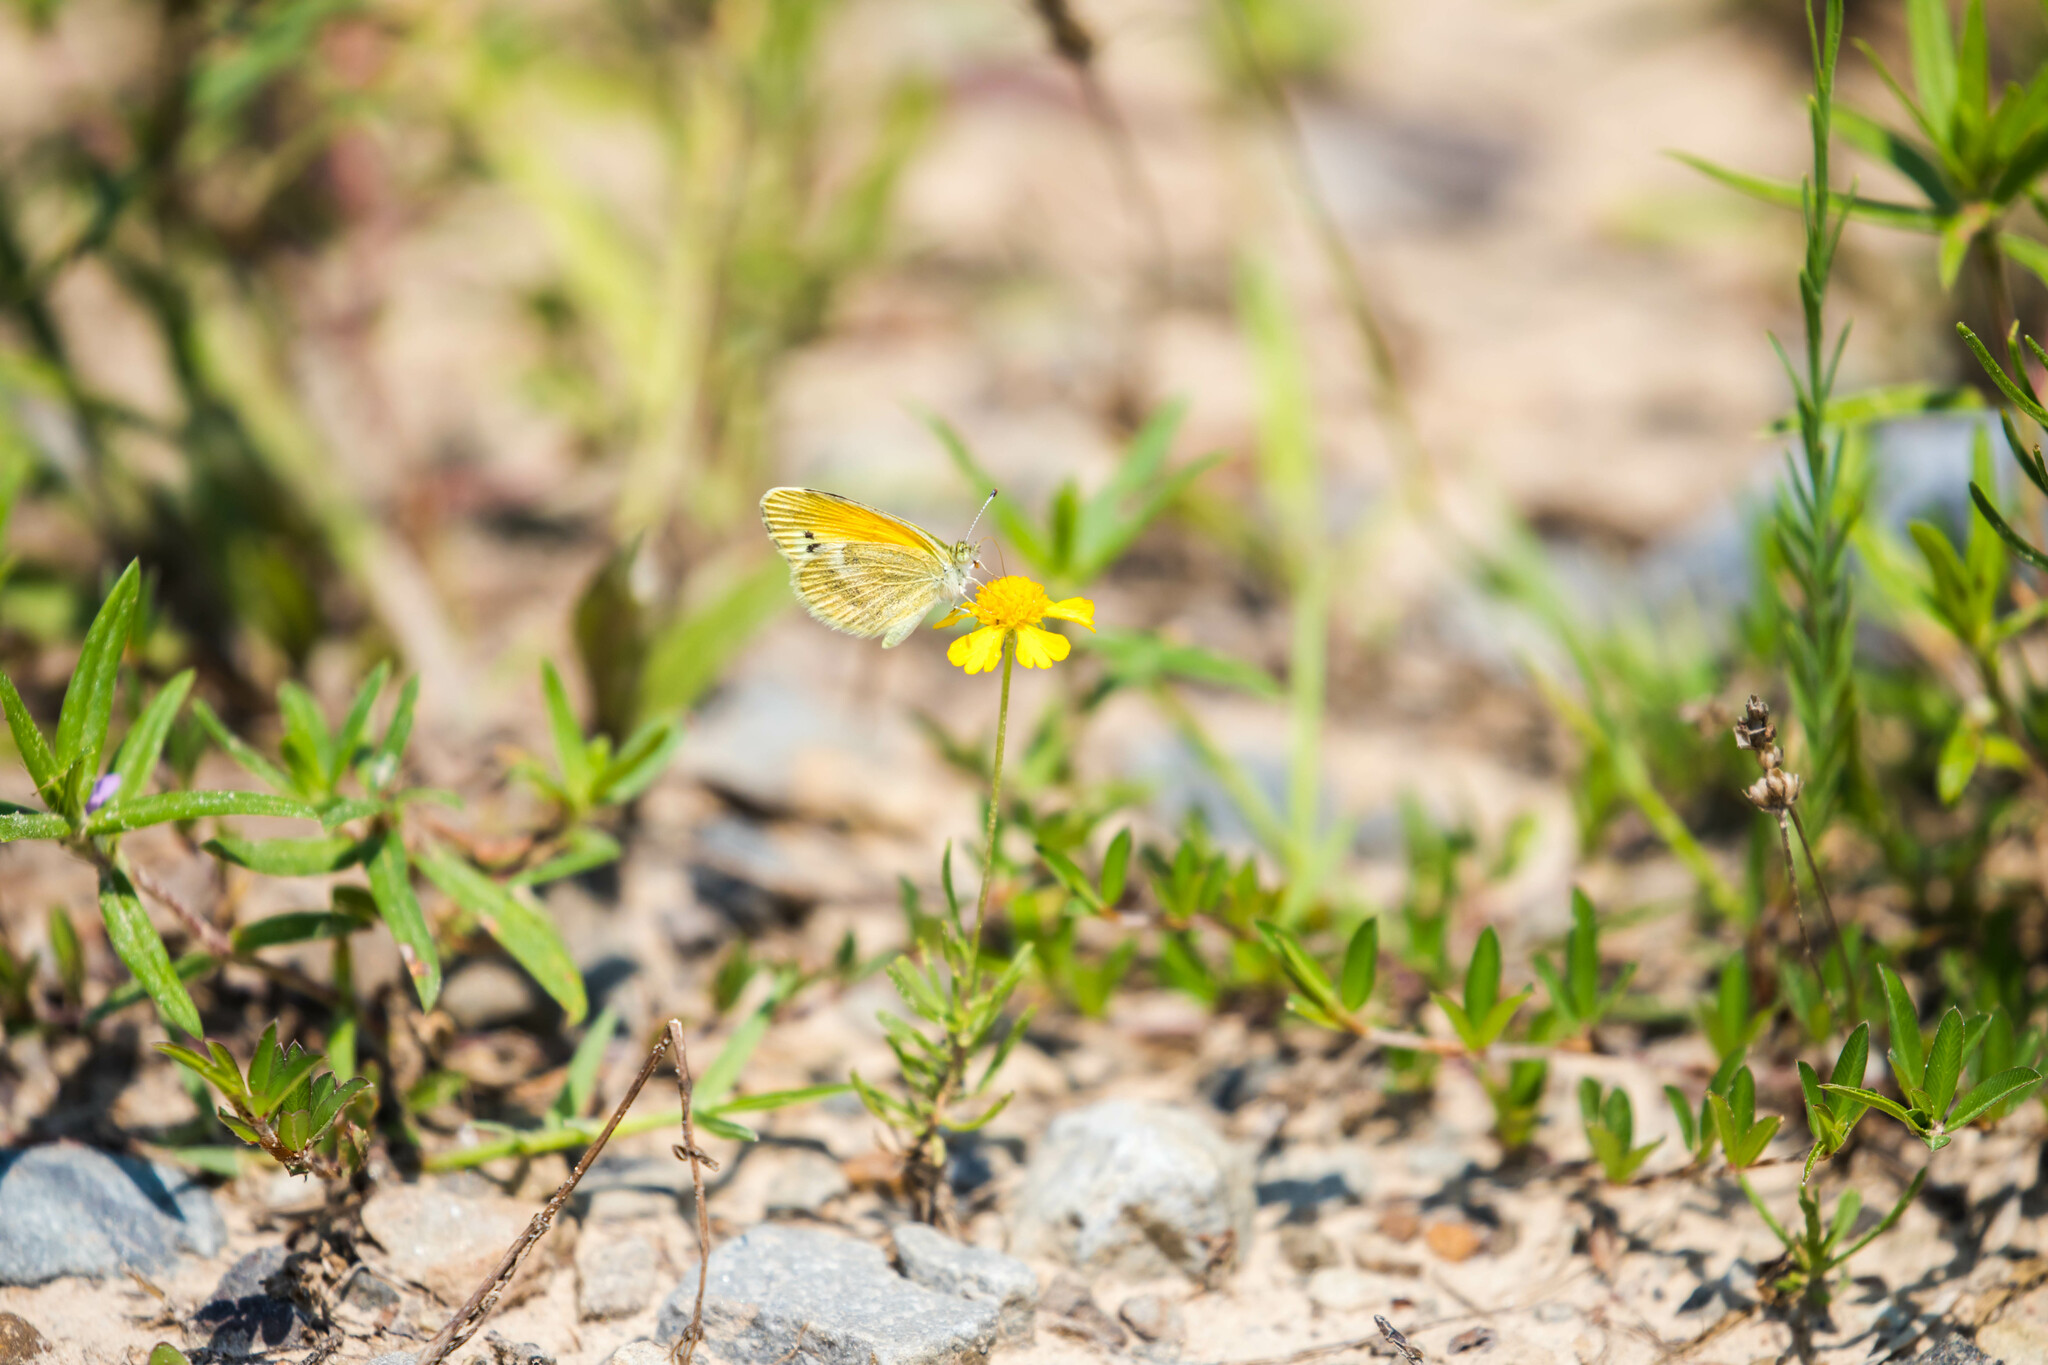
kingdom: Animalia
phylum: Arthropoda
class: Insecta
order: Lepidoptera
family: Pieridae
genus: Nathalis
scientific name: Nathalis iole
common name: Dainty sulphur
